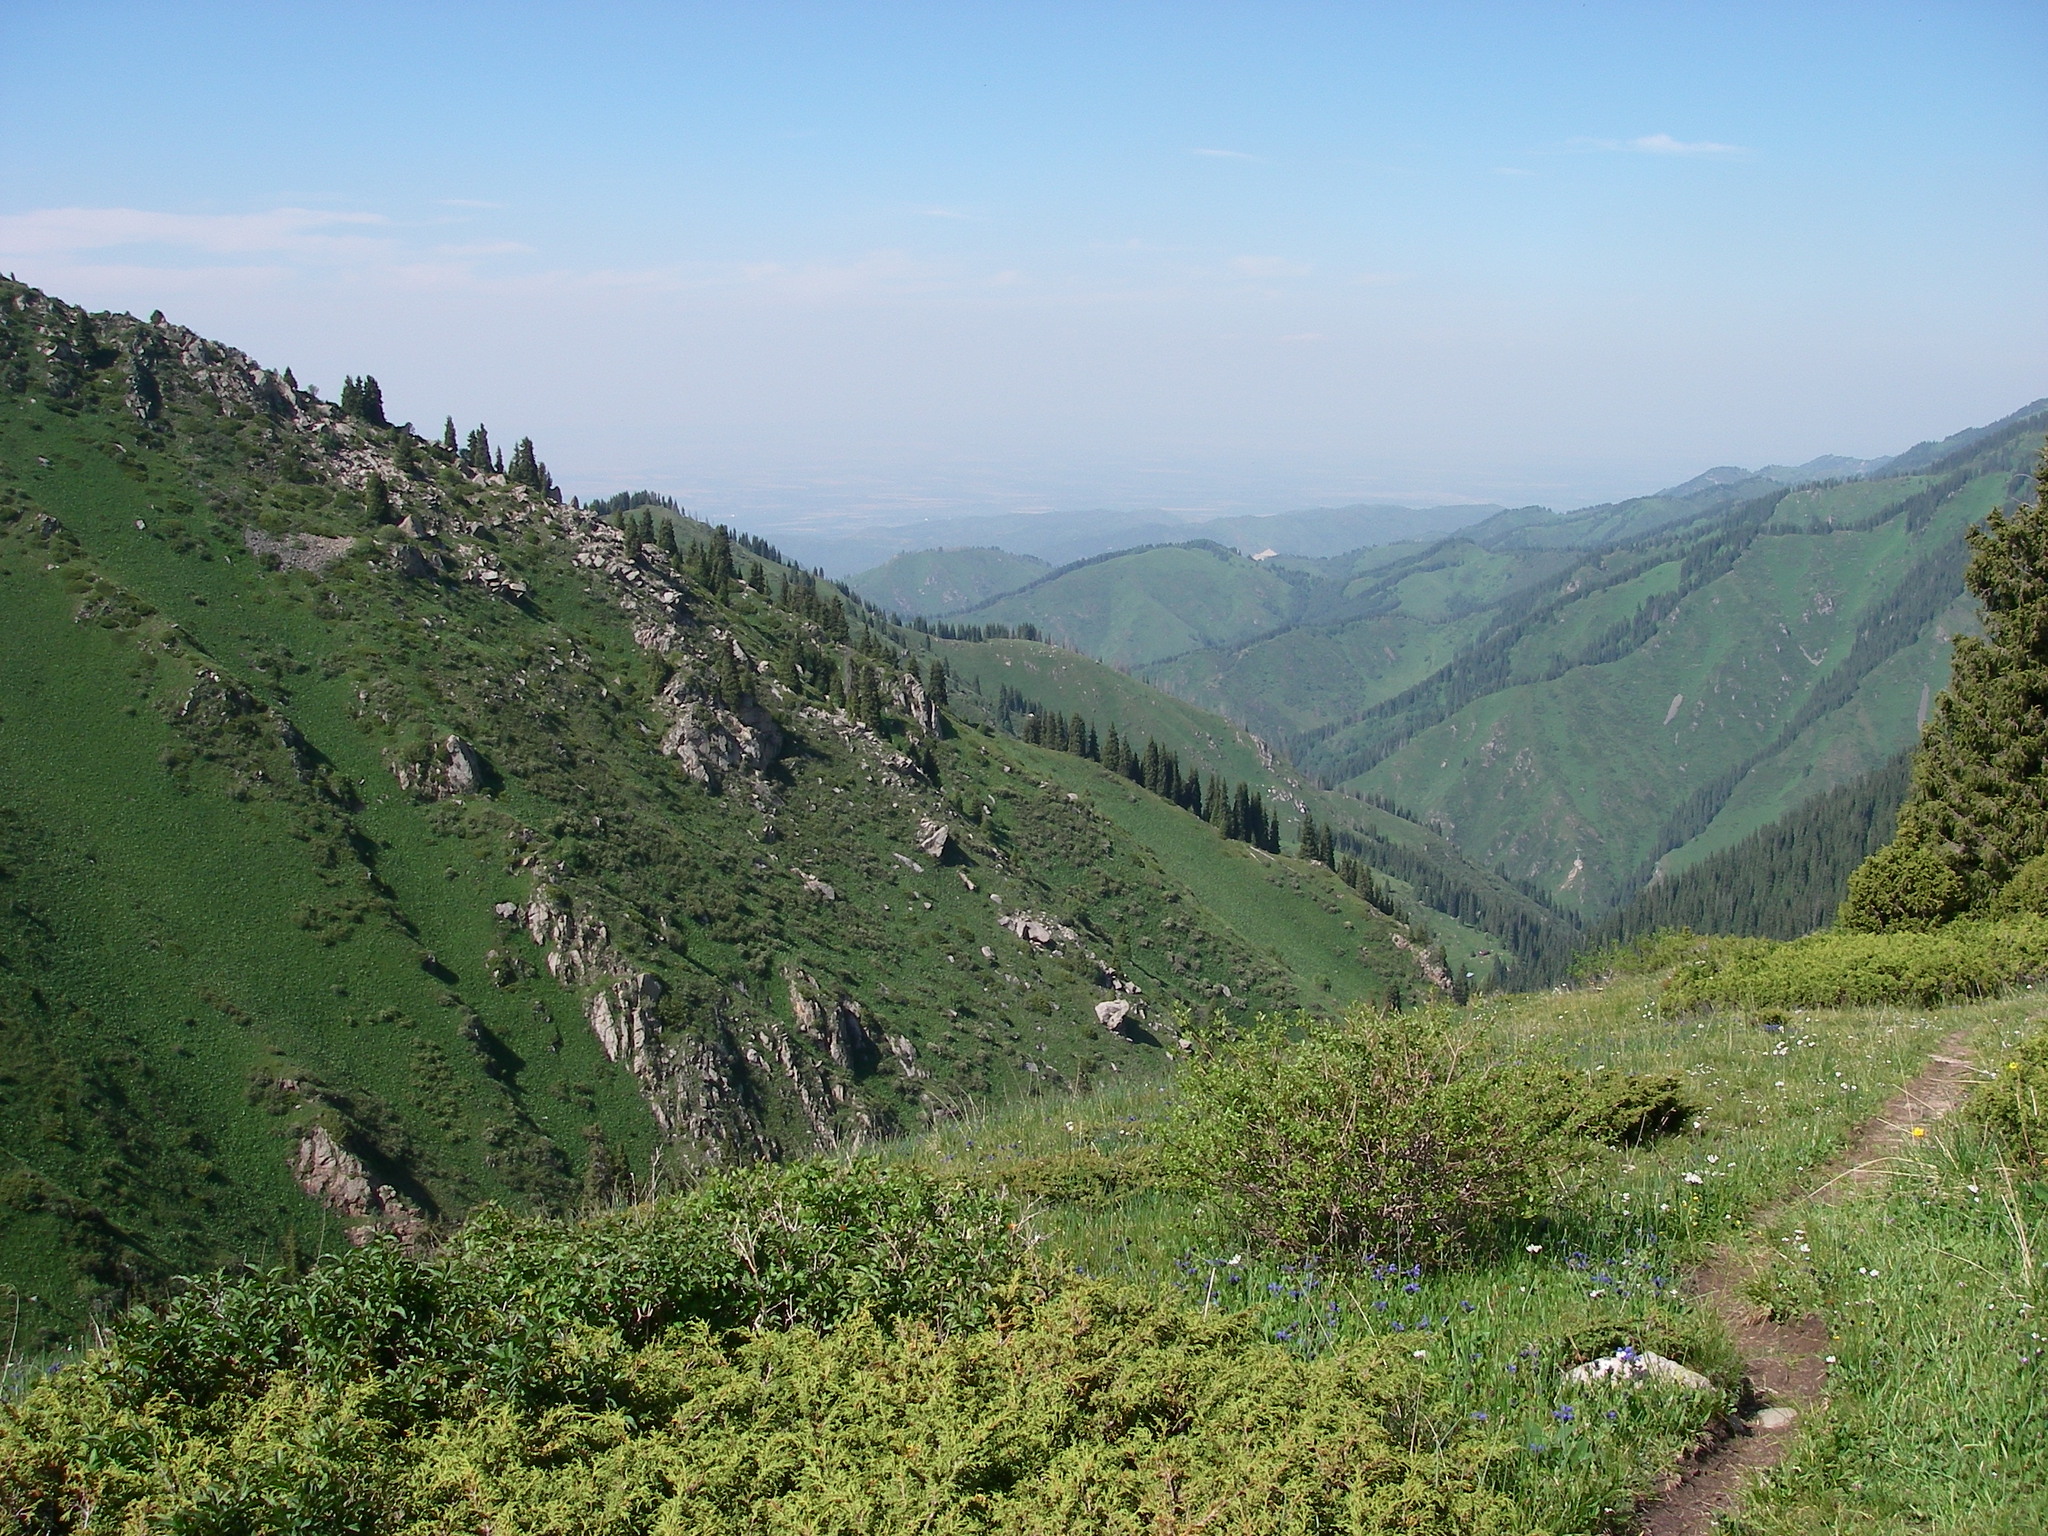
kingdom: Plantae
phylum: Tracheophyta
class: Pinopsida
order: Pinales
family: Cupressaceae
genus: Juniperus
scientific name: Juniperus pseudosabina
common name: Turkestan juniper
